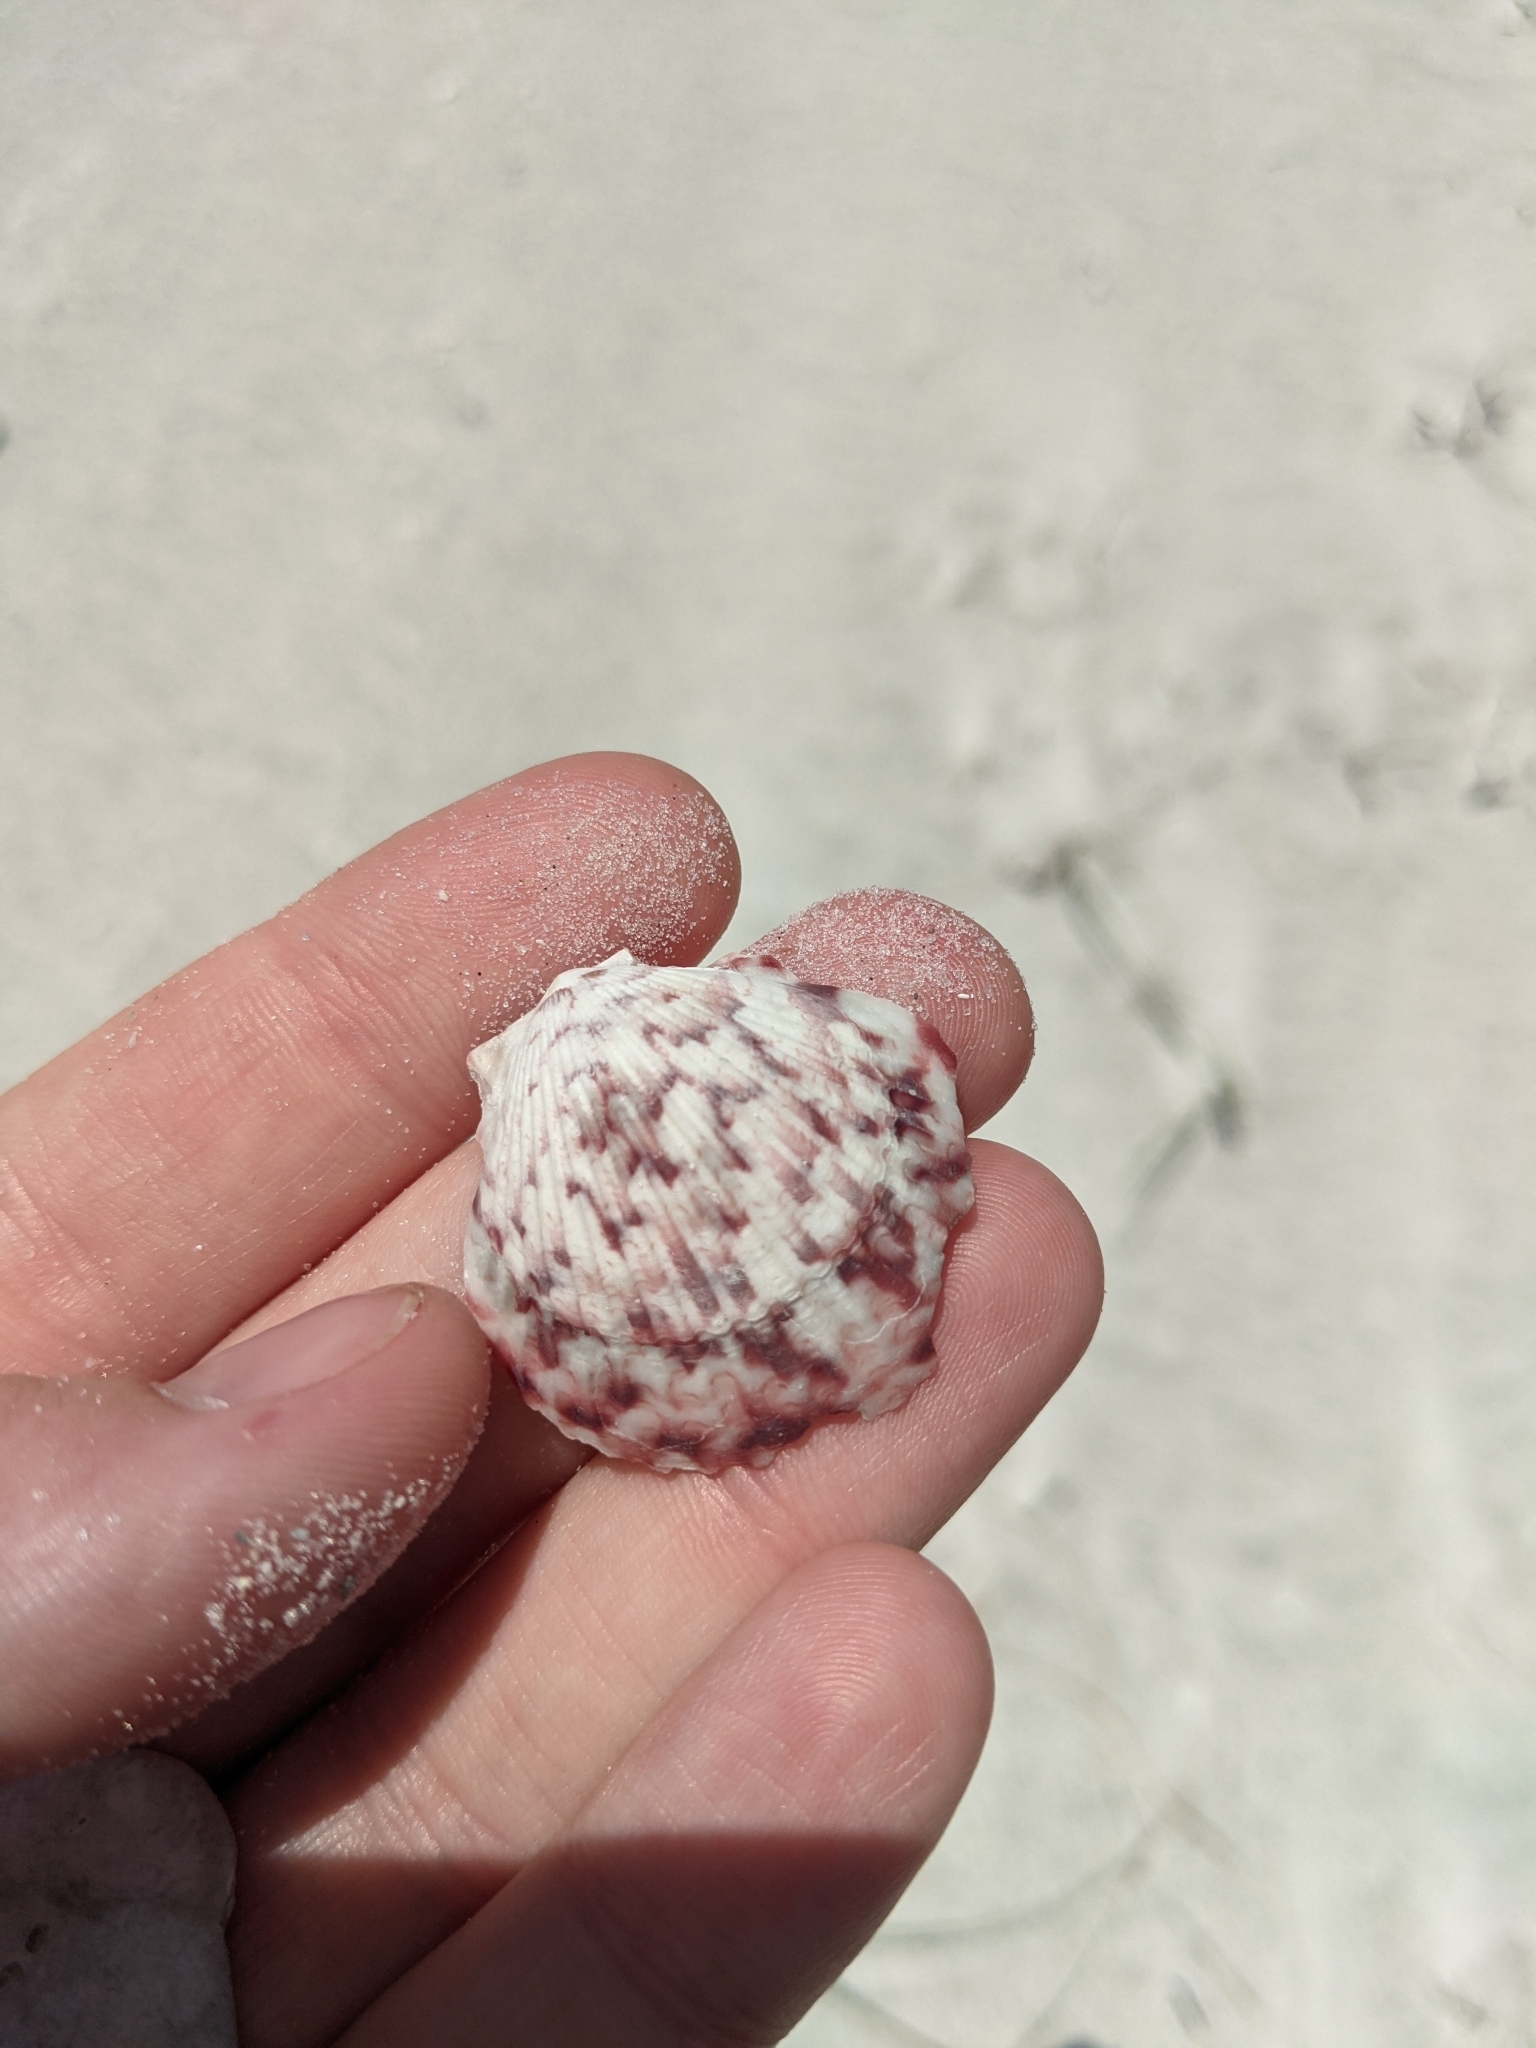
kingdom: Animalia
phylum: Mollusca
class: Bivalvia
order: Pectinida
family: Pectinidae
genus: Argopecten
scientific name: Argopecten gibbus
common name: Atlantic calico scallop
